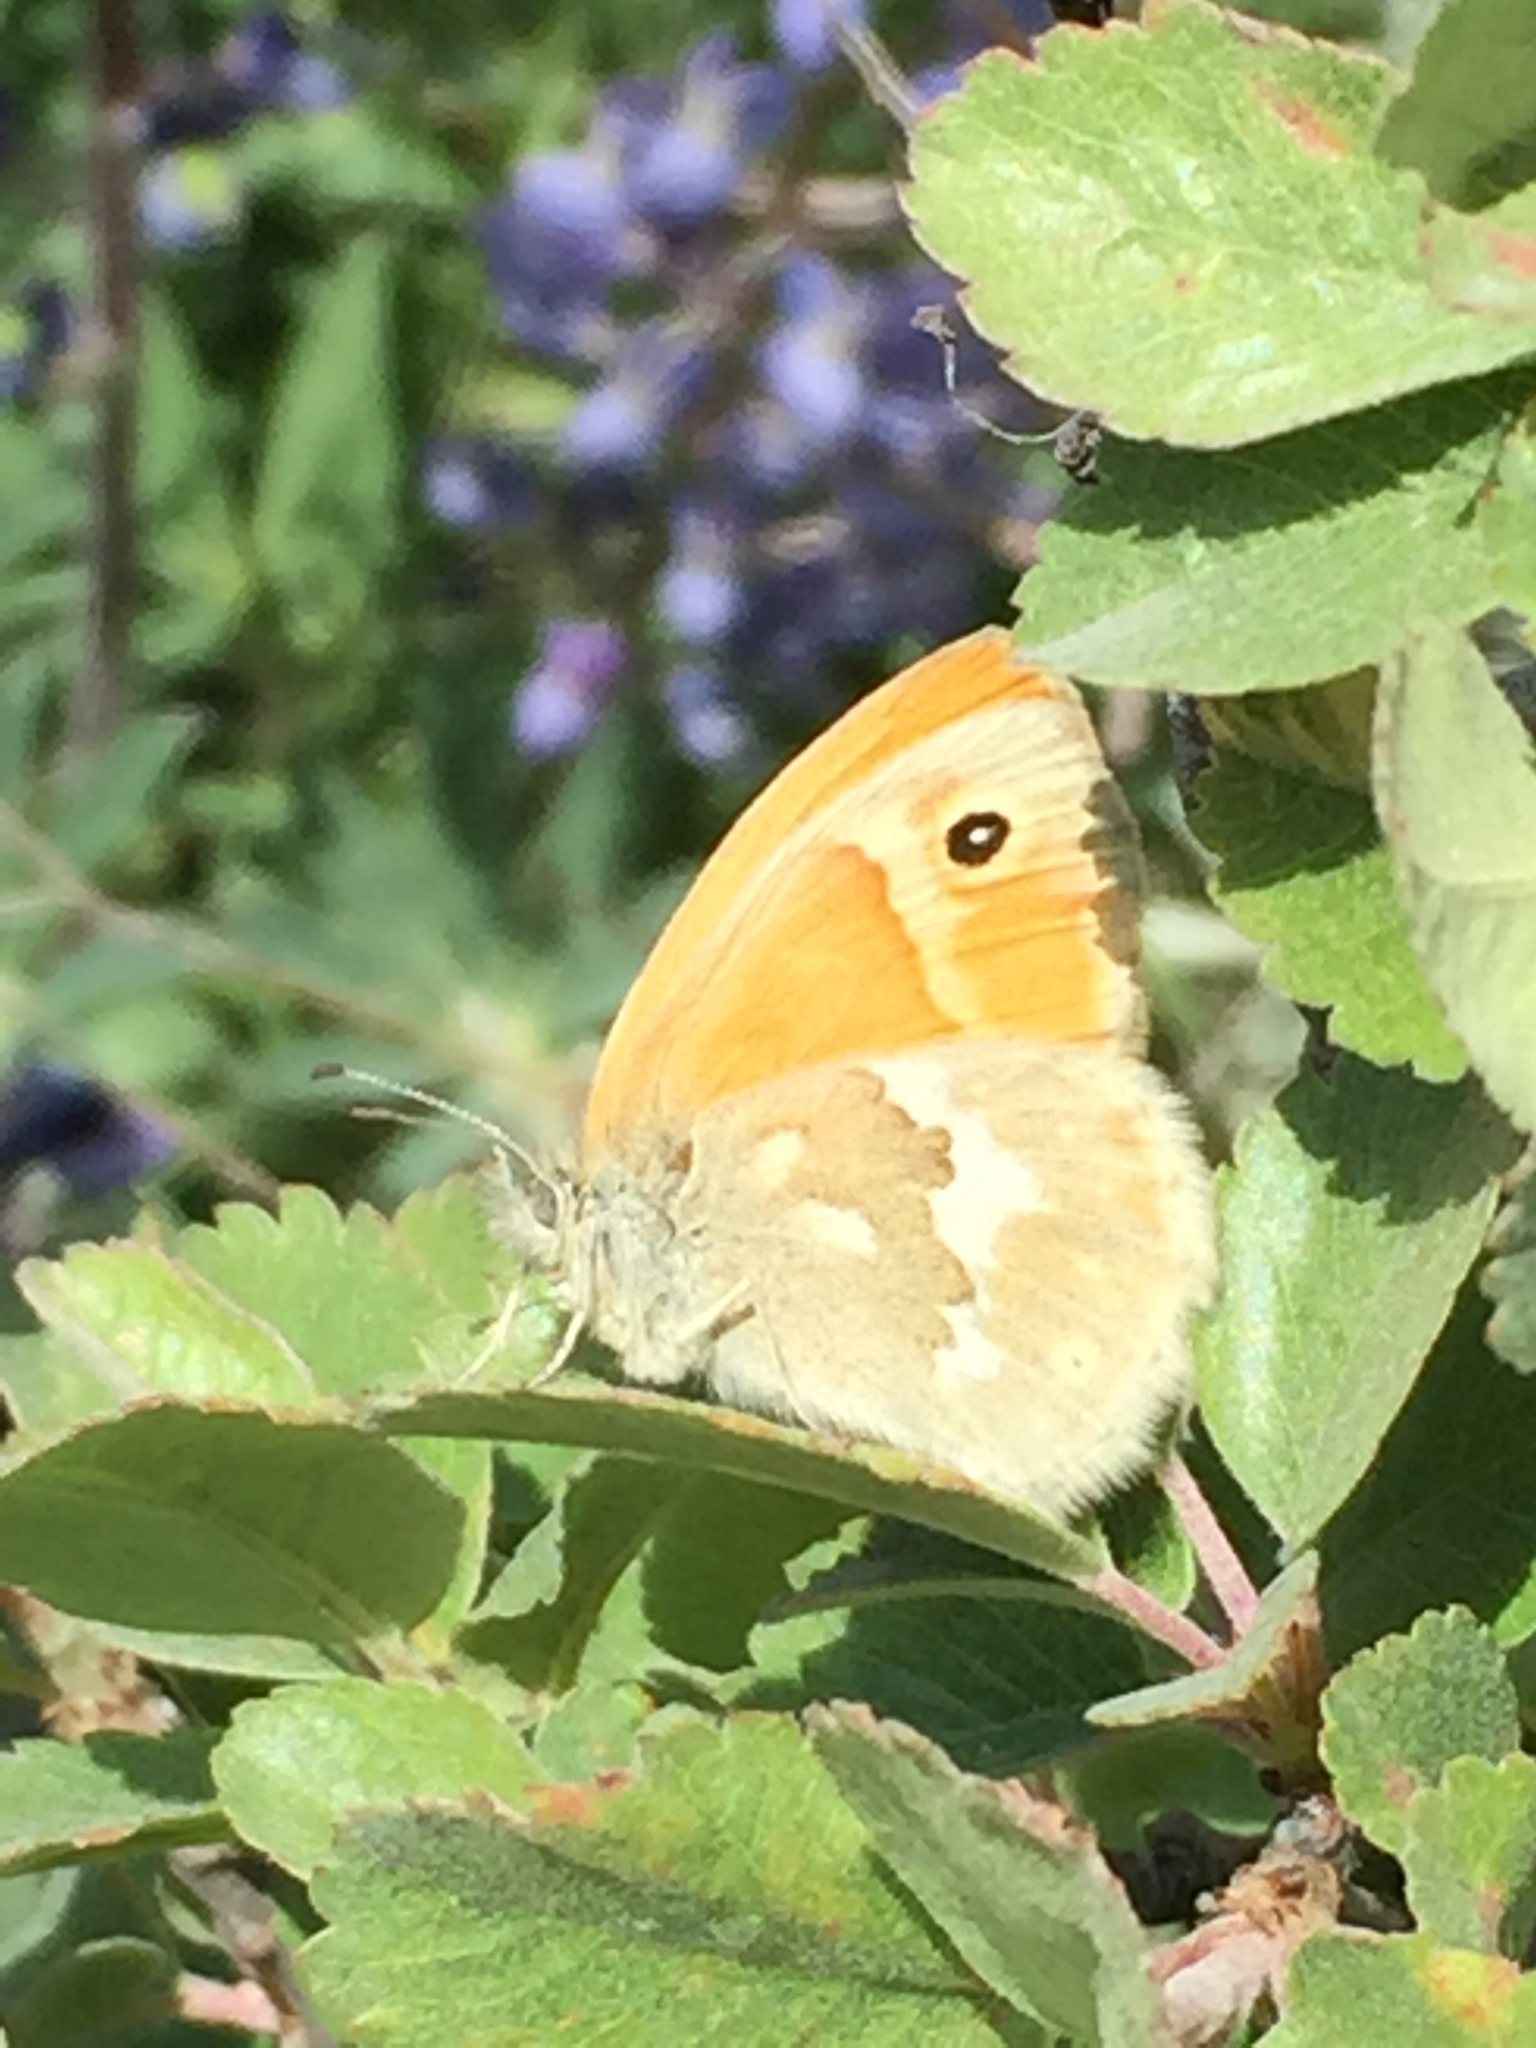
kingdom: Animalia
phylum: Arthropoda
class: Insecta
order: Lepidoptera
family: Nymphalidae
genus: Coenonympha
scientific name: Coenonympha california
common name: Common ringlet
